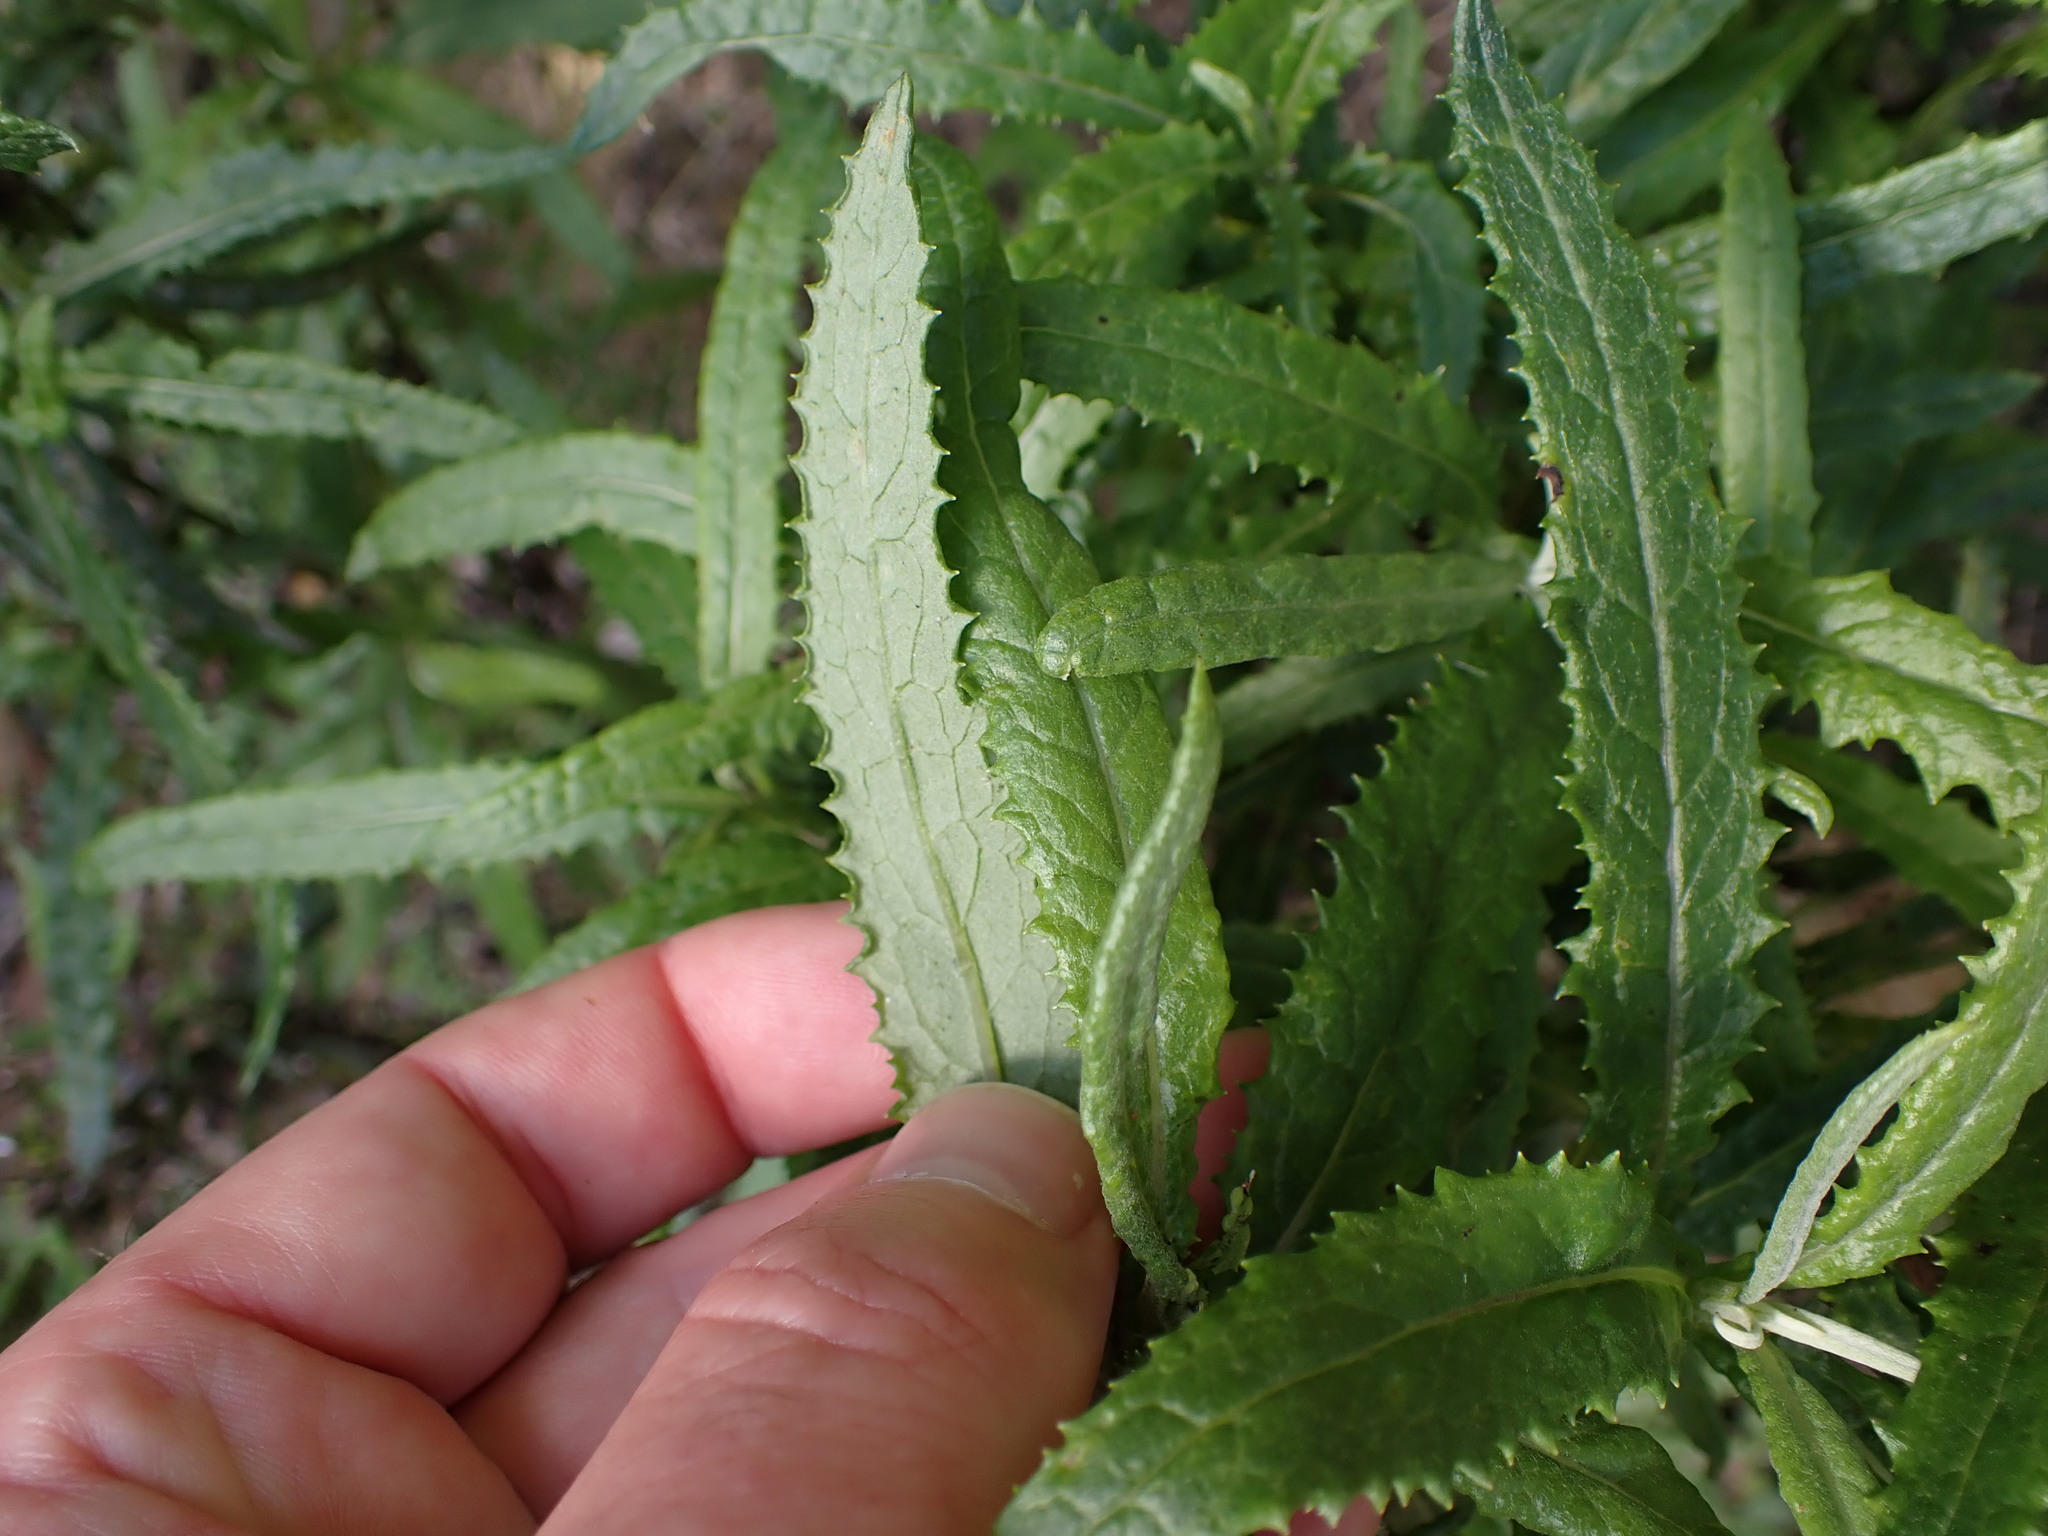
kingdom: Plantae
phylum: Tracheophyta
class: Magnoliopsida
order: Asterales
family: Asteraceae
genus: Senecio
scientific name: Senecio minimus
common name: Toothed fireweed
